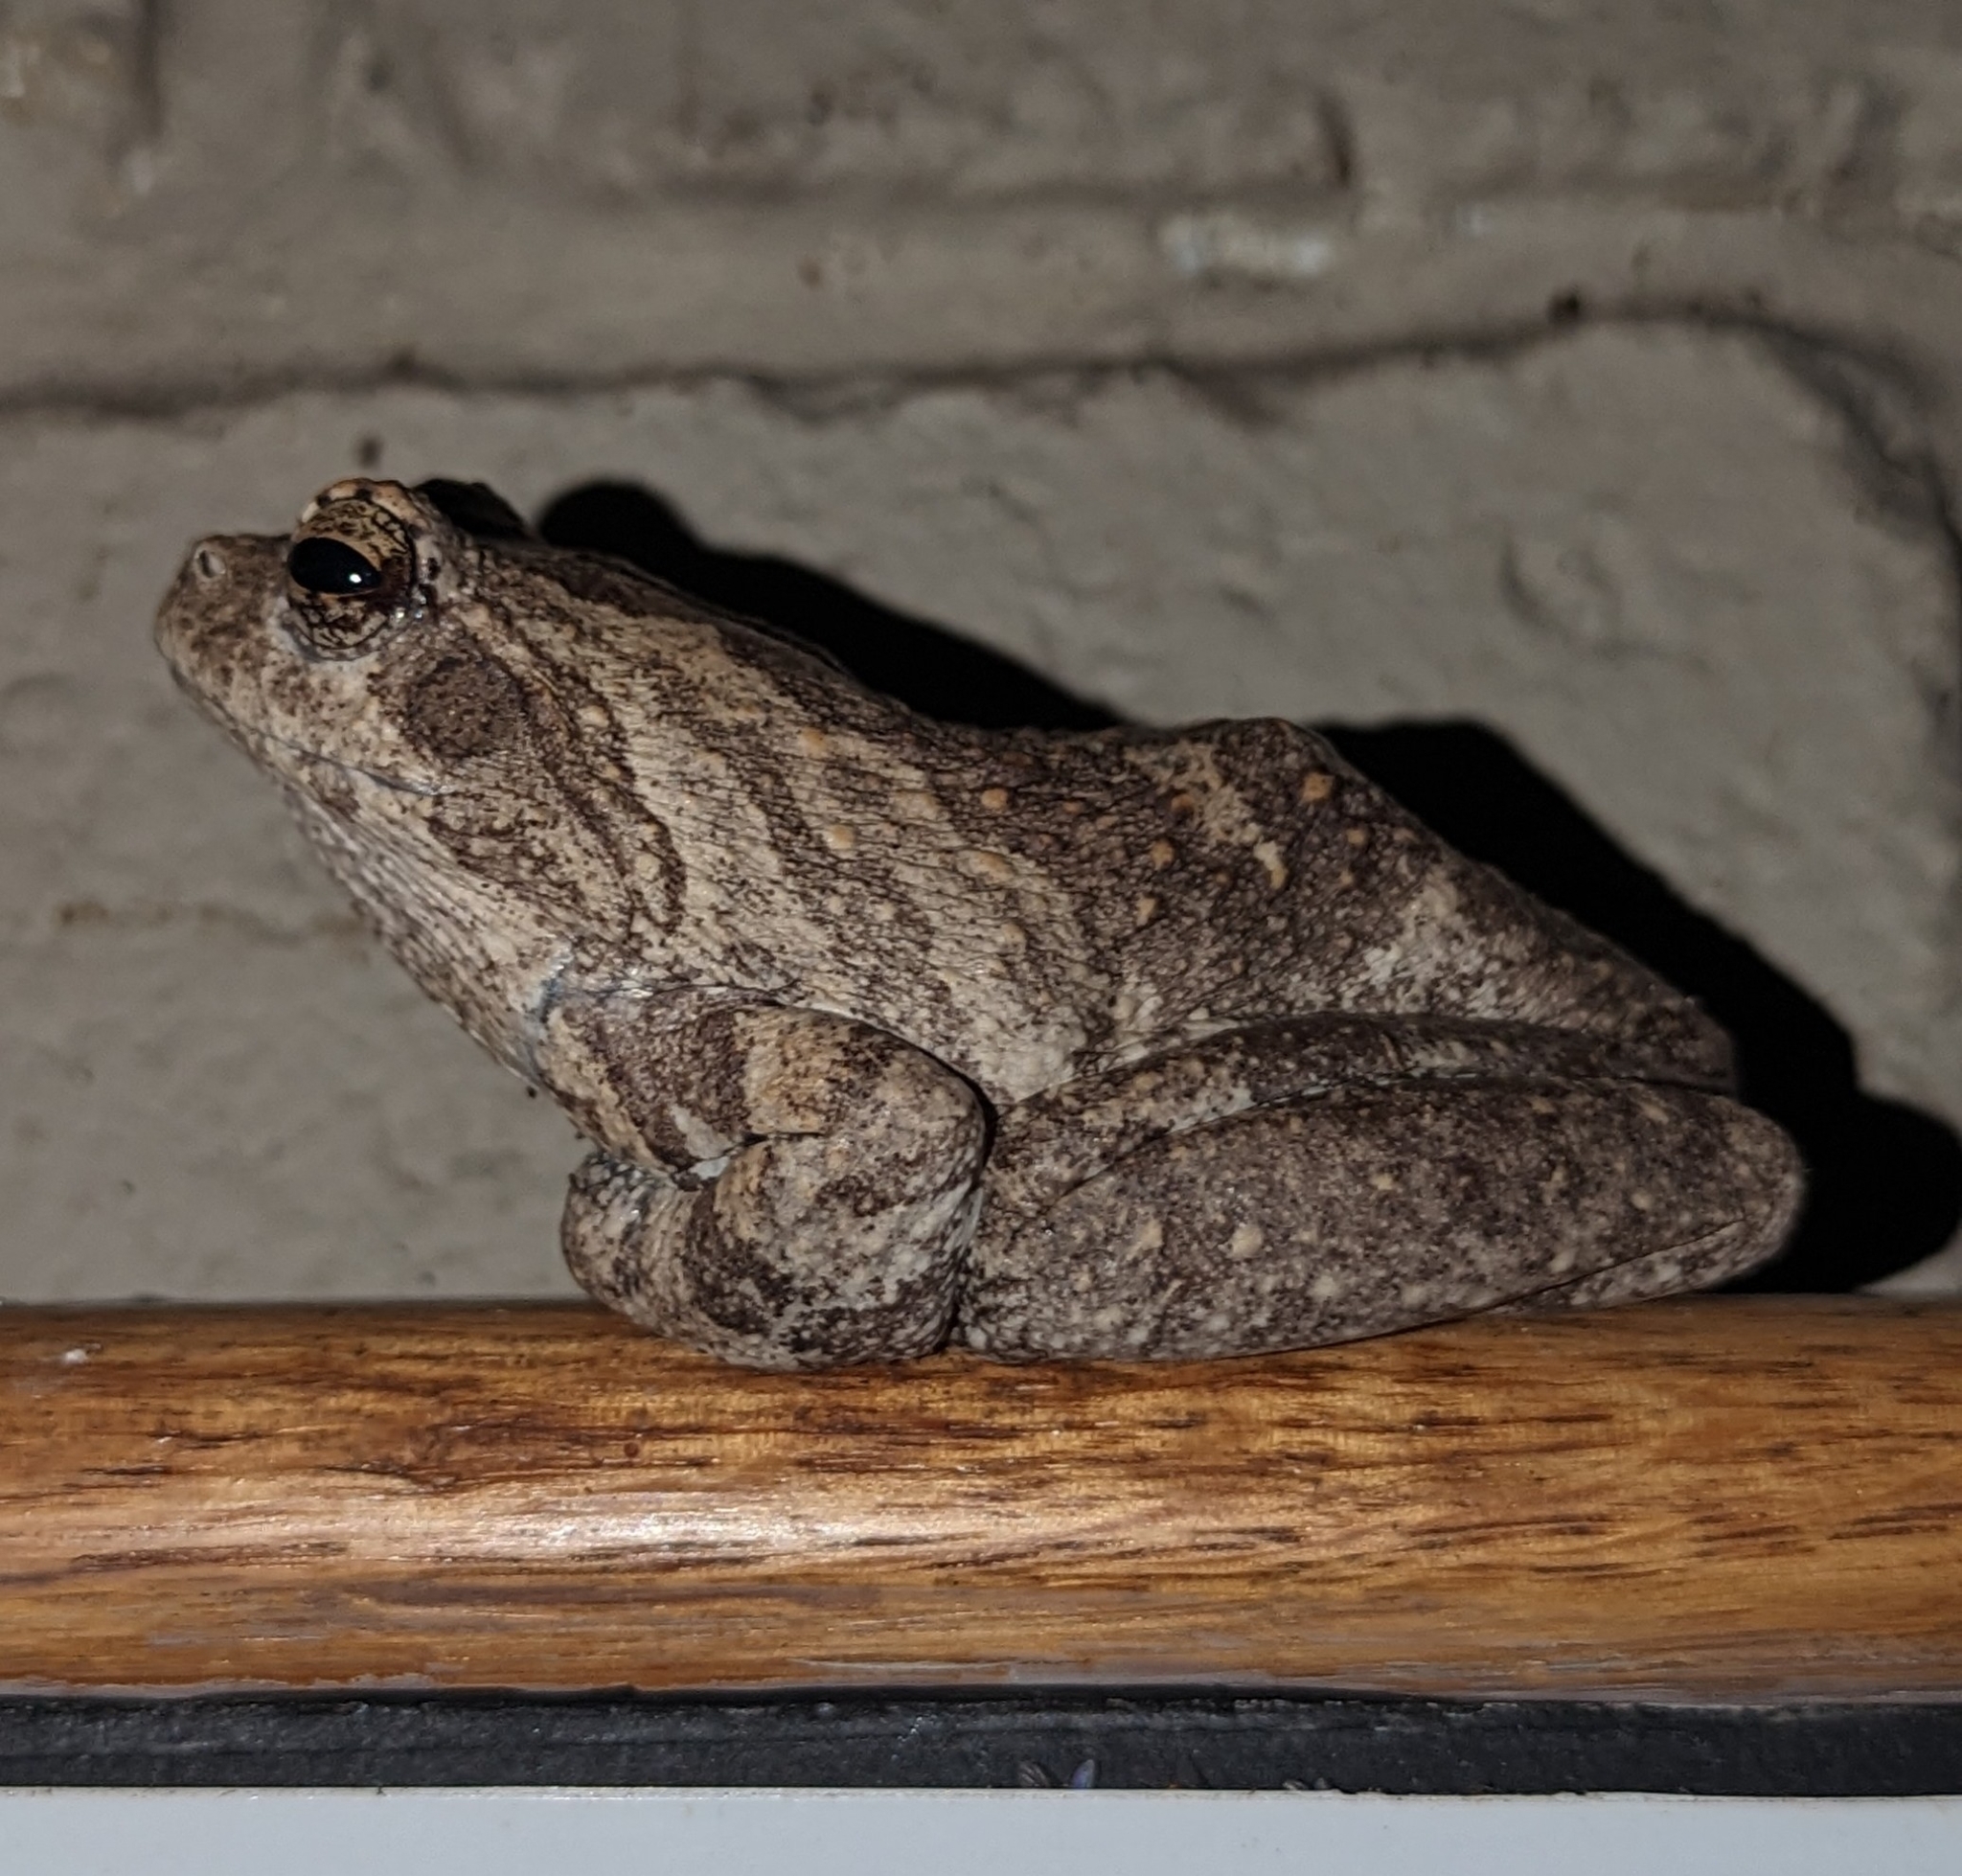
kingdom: Animalia
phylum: Chordata
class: Amphibia
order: Anura
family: Rhacophoridae
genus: Chiromantis
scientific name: Chiromantis xerampelina
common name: African gray treefrog
